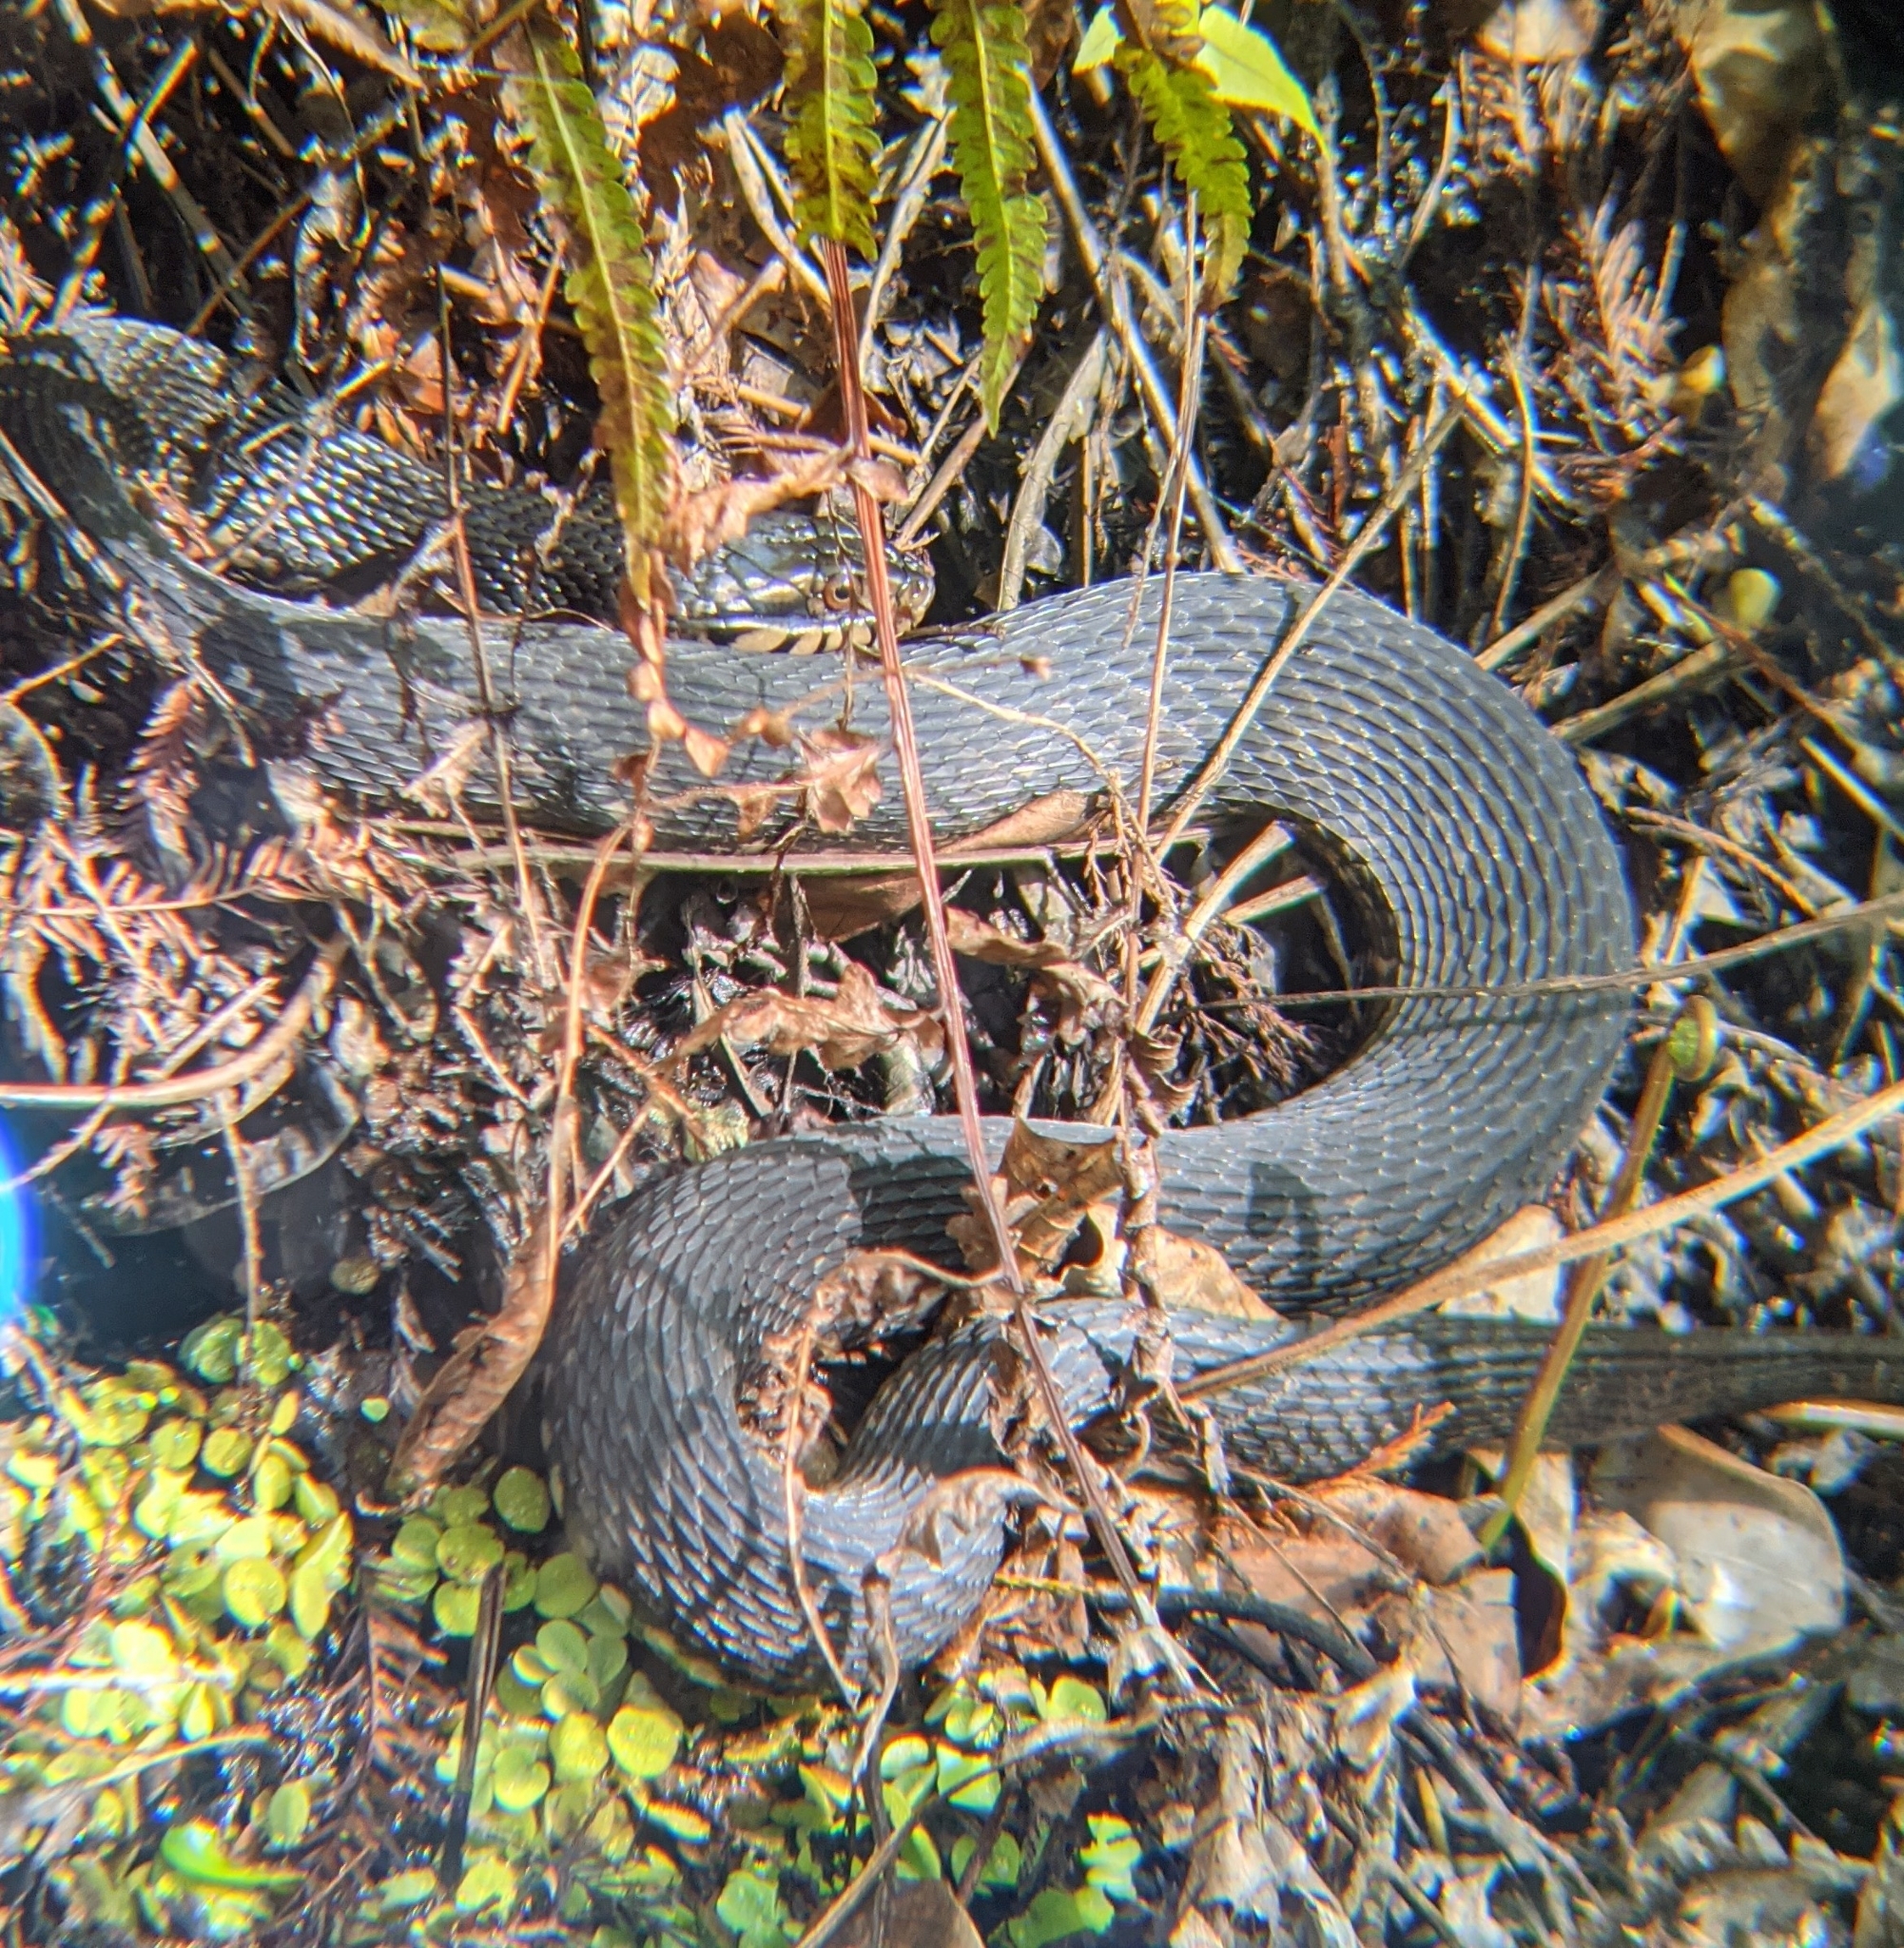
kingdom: Animalia
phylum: Chordata
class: Squamata
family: Colubridae
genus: Nerodia
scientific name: Nerodia fasciata
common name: Southern water snake
